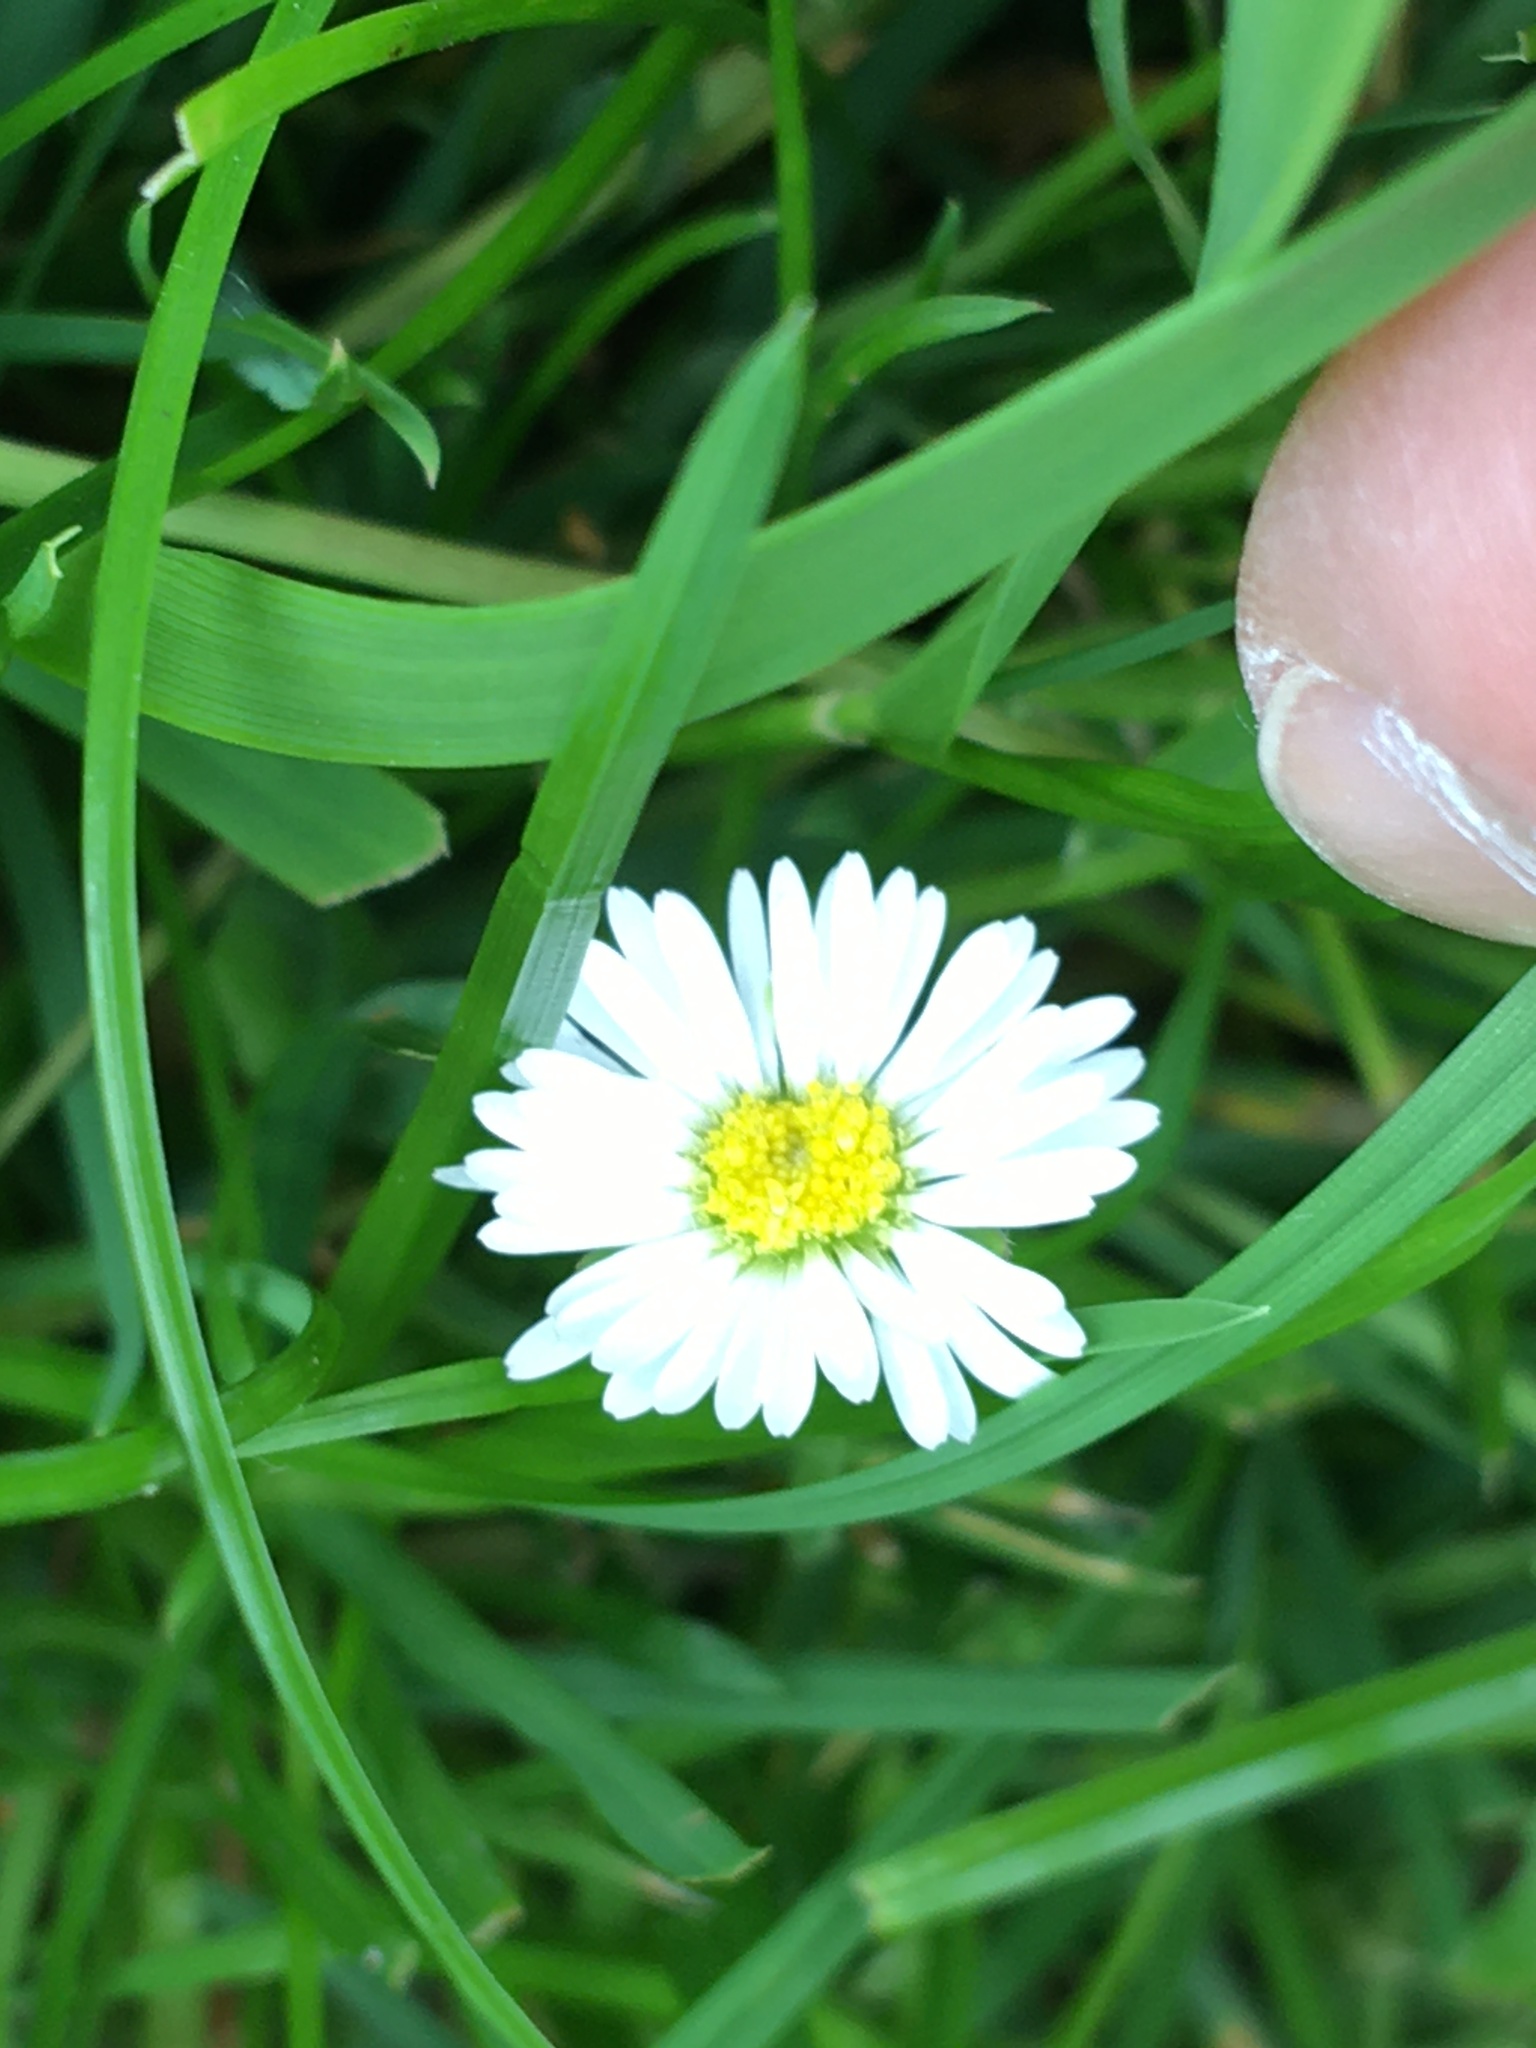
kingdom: Plantae
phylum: Tracheophyta
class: Magnoliopsida
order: Asterales
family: Asteraceae
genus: Bellis
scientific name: Bellis perennis
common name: Lawndaisy
